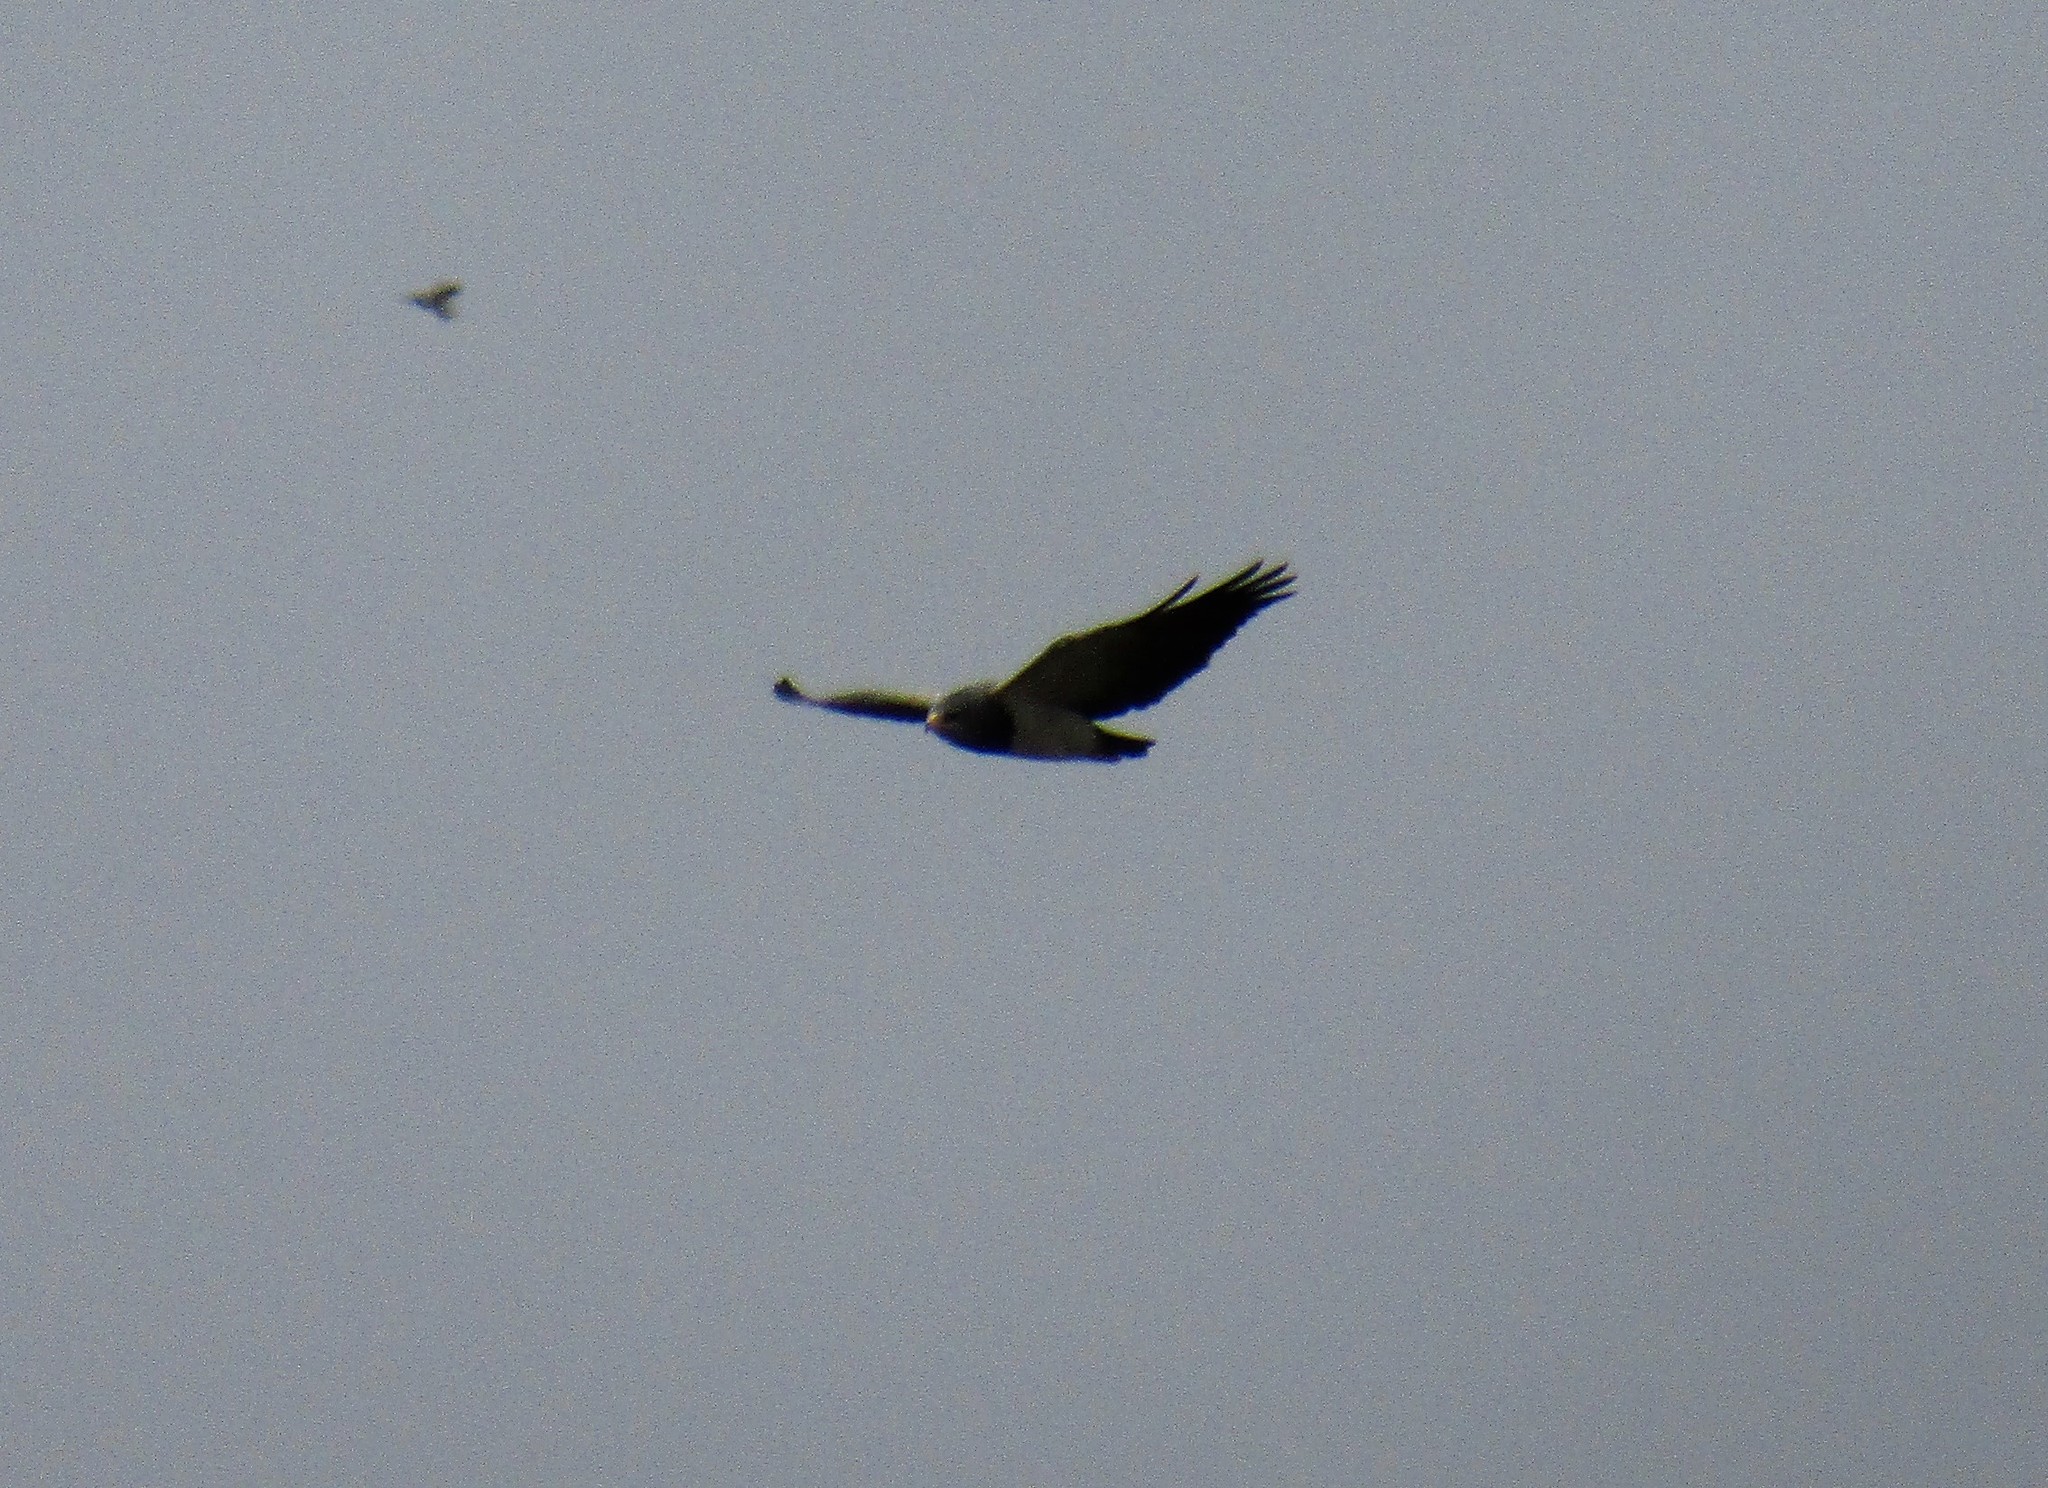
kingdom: Animalia
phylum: Chordata
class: Aves
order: Accipitriformes
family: Accipitridae
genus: Geranoaetus
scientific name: Geranoaetus melanoleucus
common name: Black-chested buzzard-eagle
